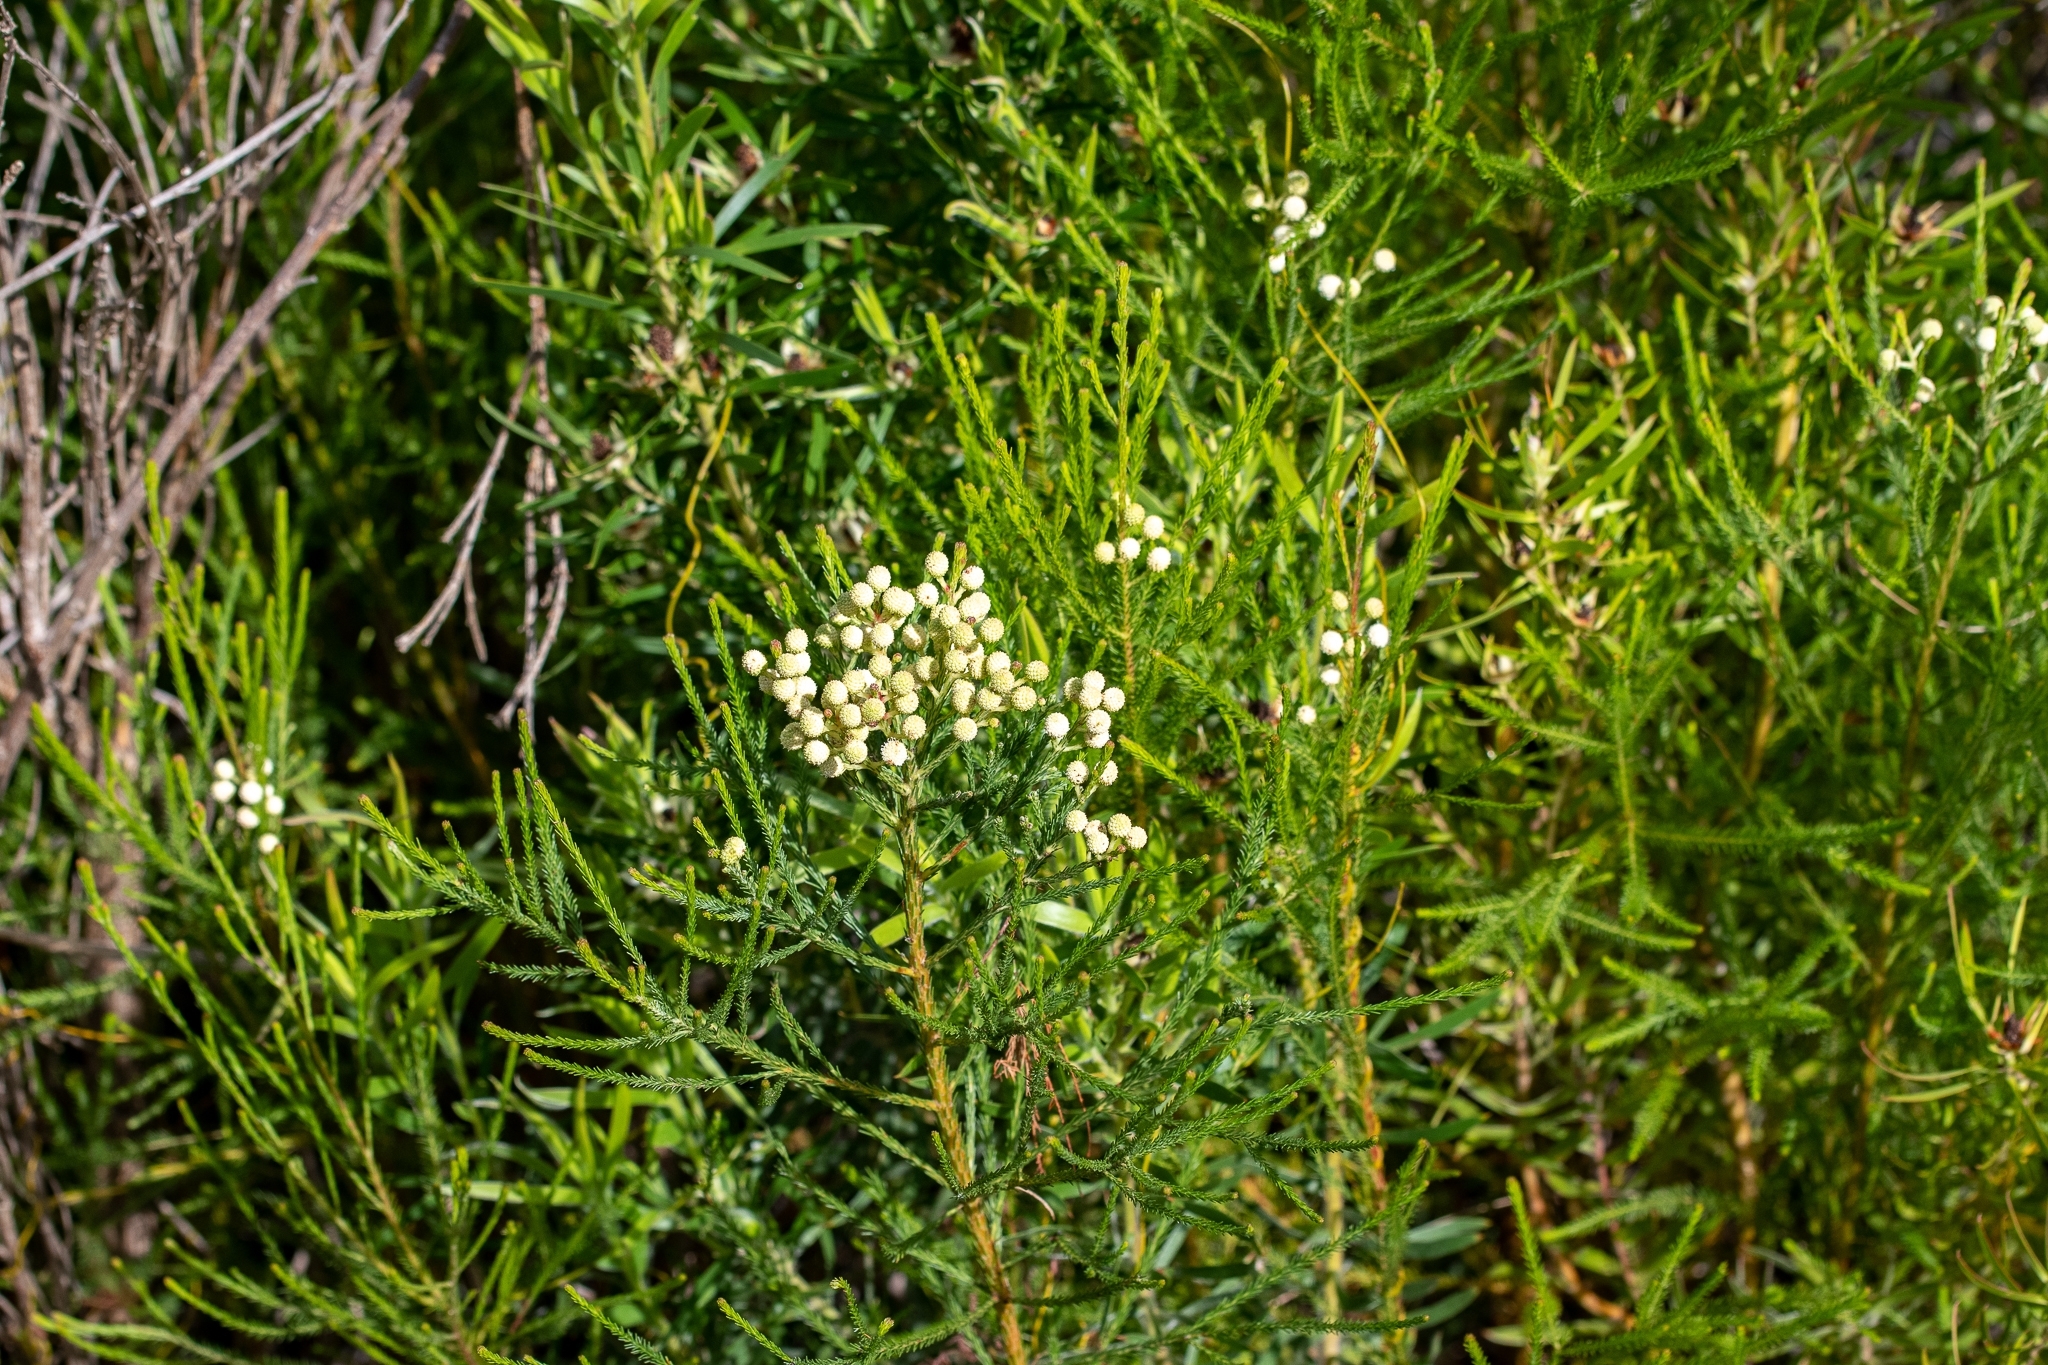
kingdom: Plantae
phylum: Tracheophyta
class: Magnoliopsida
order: Bruniales
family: Bruniaceae
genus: Berzelia
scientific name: Berzelia lanuginosa
